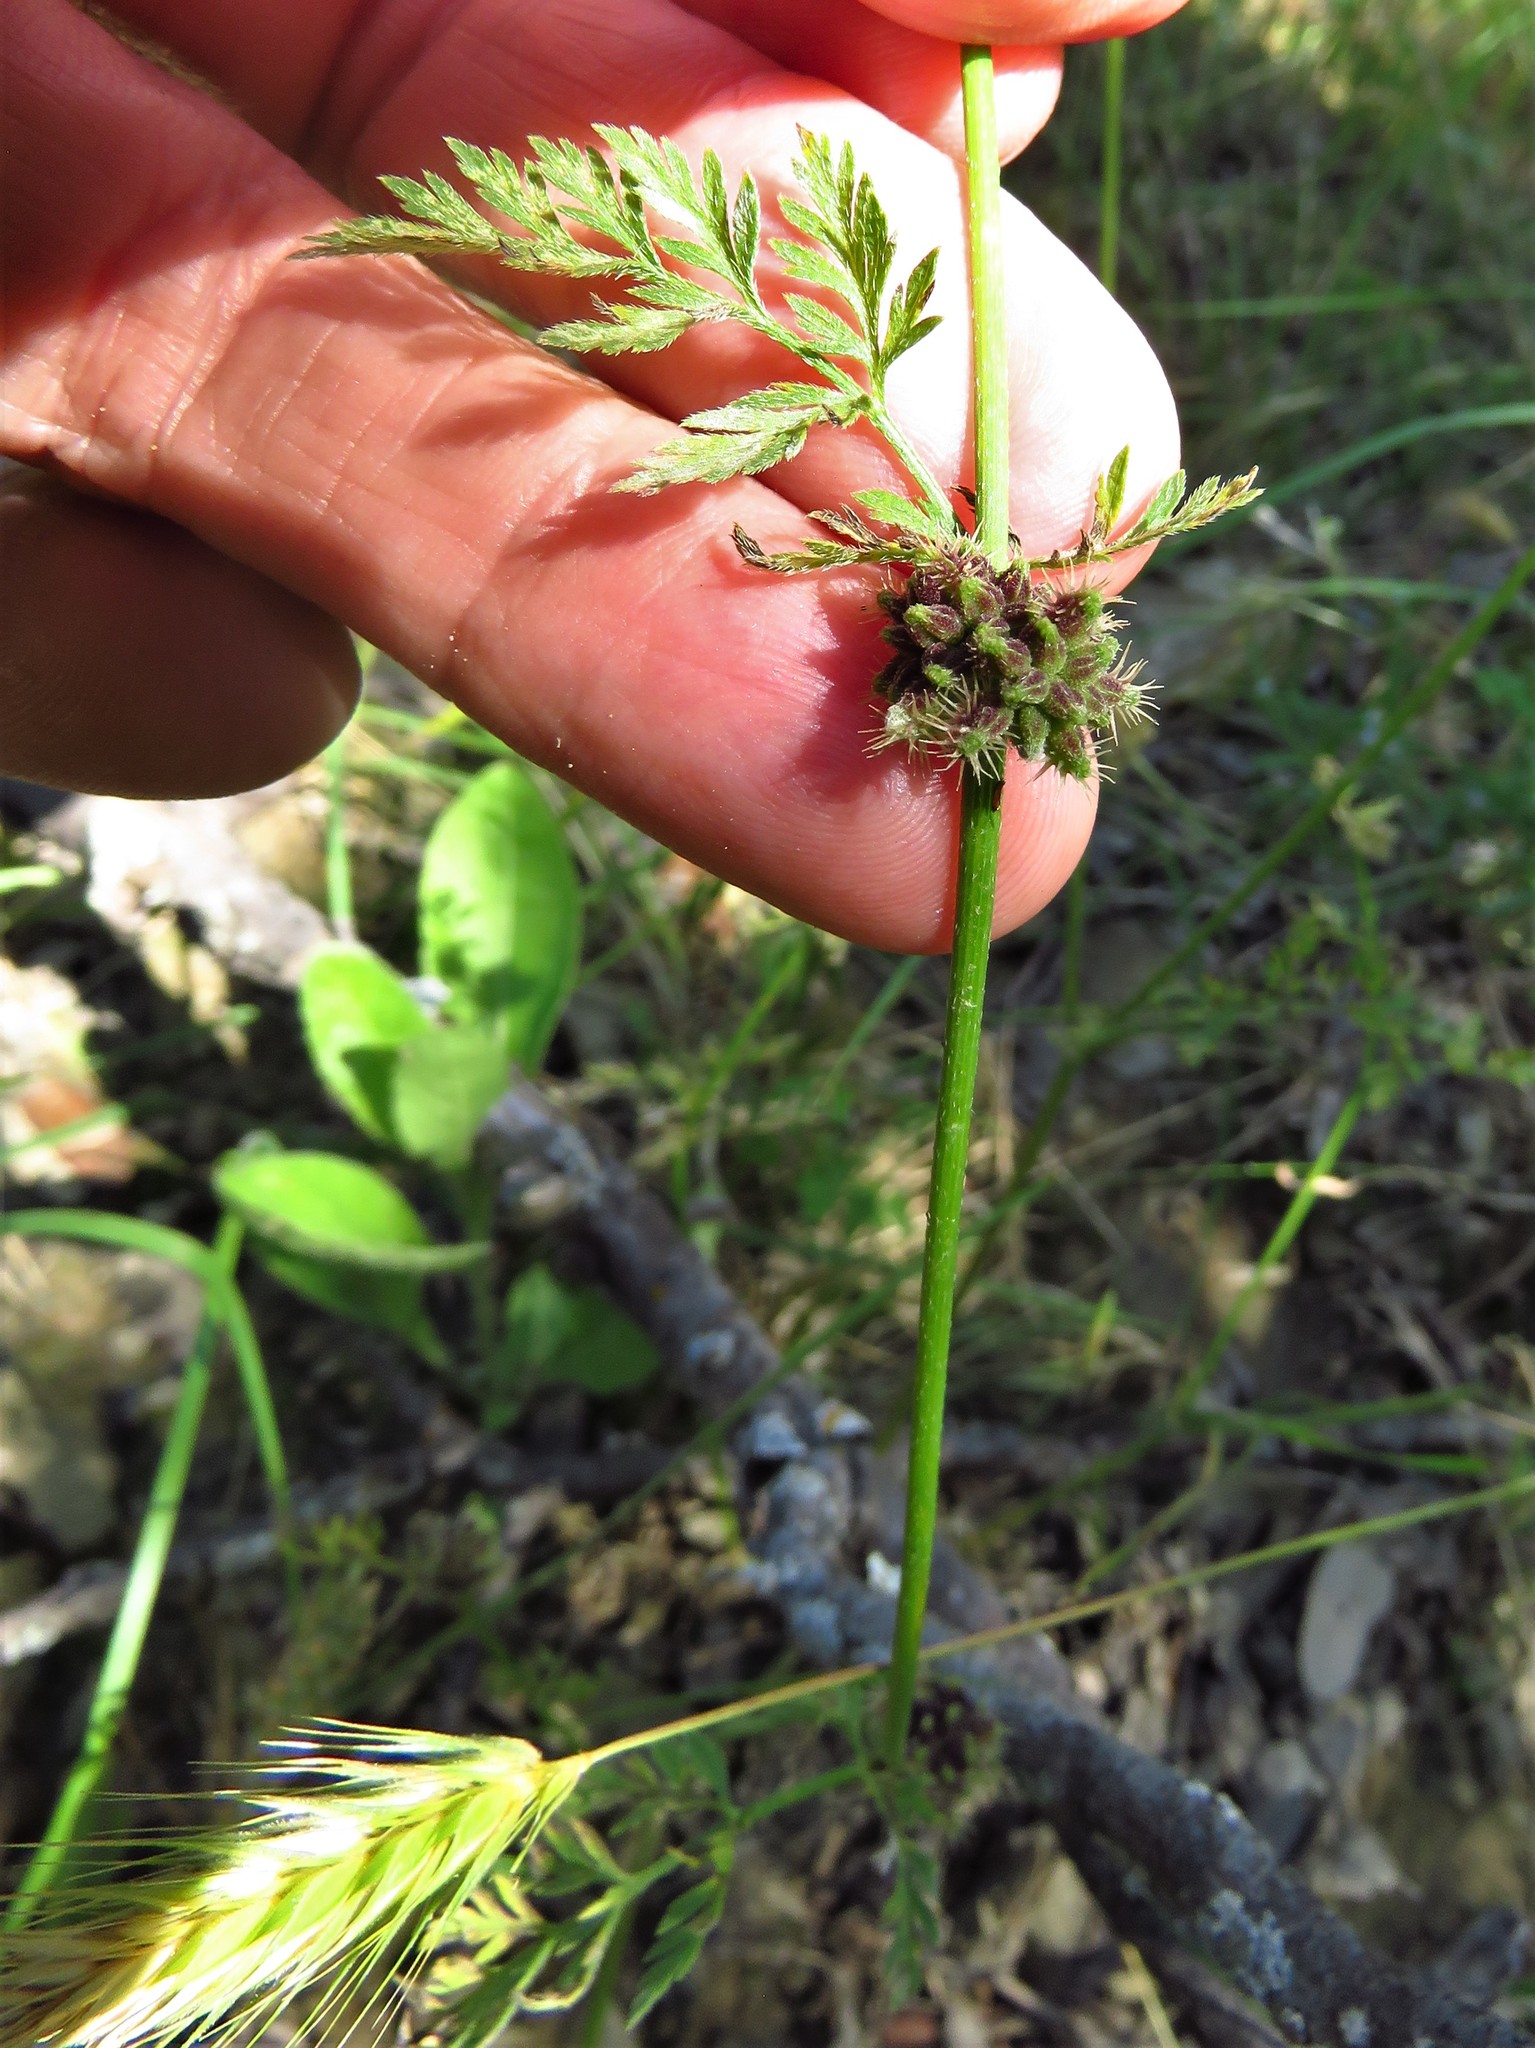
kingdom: Plantae
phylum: Tracheophyta
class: Magnoliopsida
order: Apiales
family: Apiaceae
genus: Torilis
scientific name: Torilis nodosa
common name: Knotted hedge-parsley
